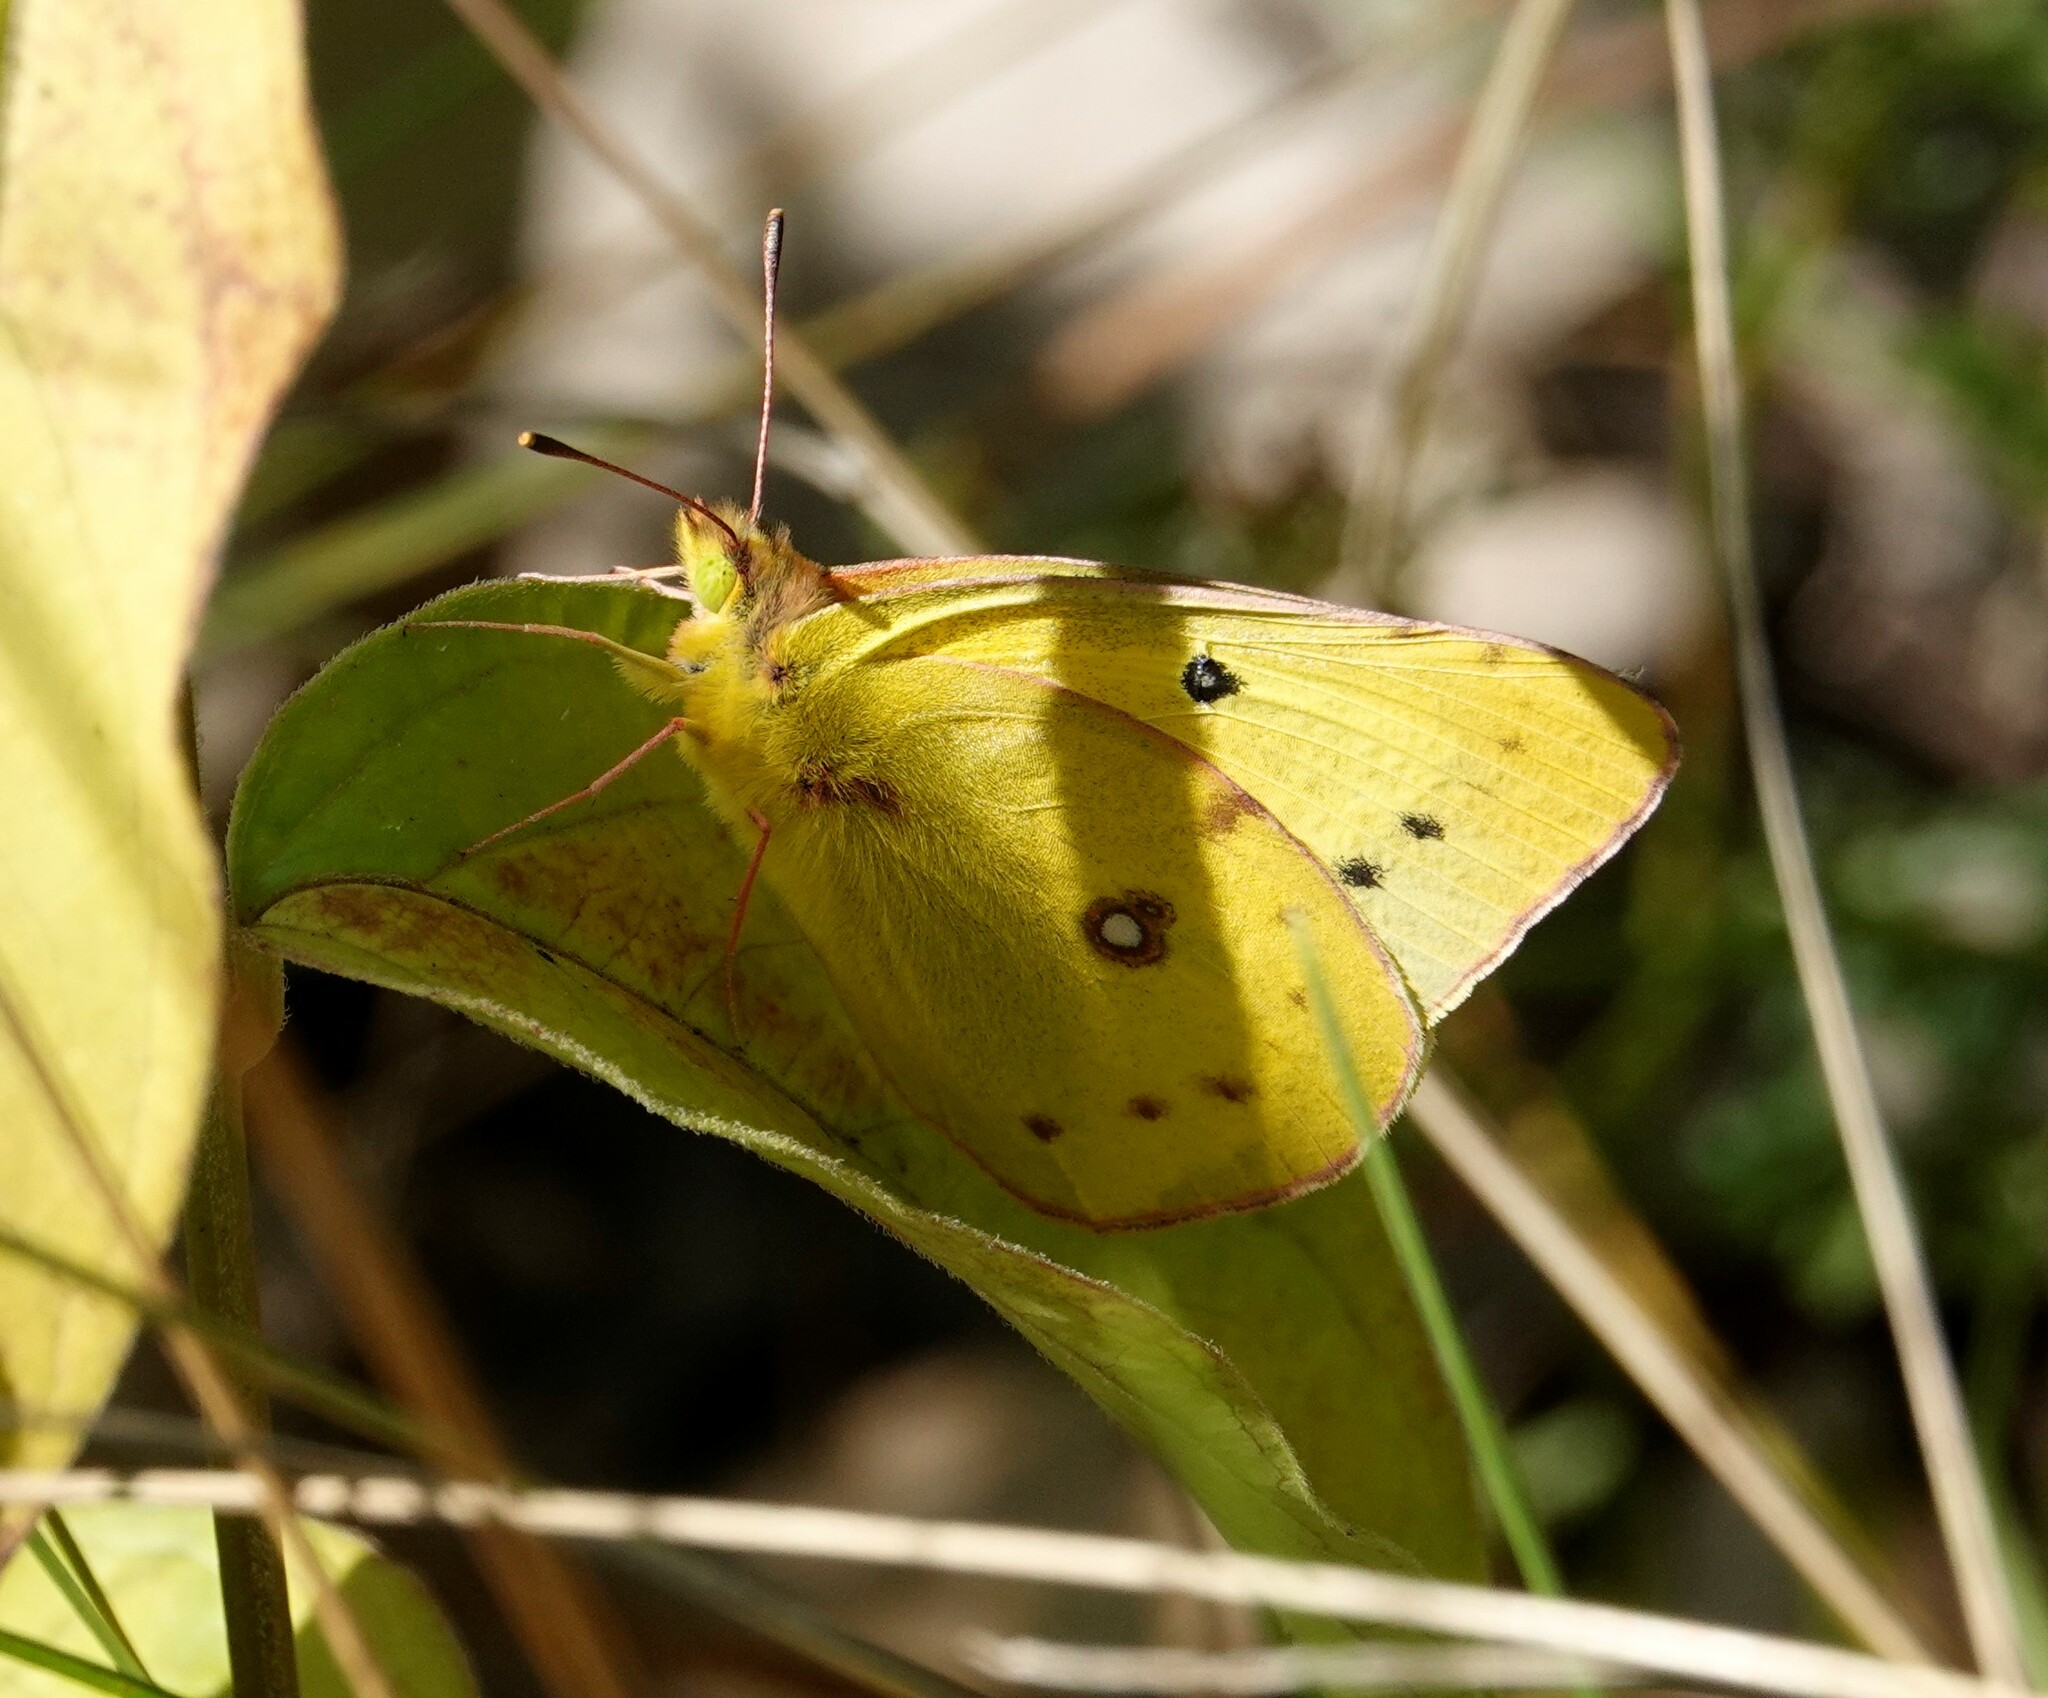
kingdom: Animalia
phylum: Arthropoda
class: Insecta
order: Lepidoptera
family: Pieridae
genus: Colias
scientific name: Colias philodice
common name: Clouded sulphur
